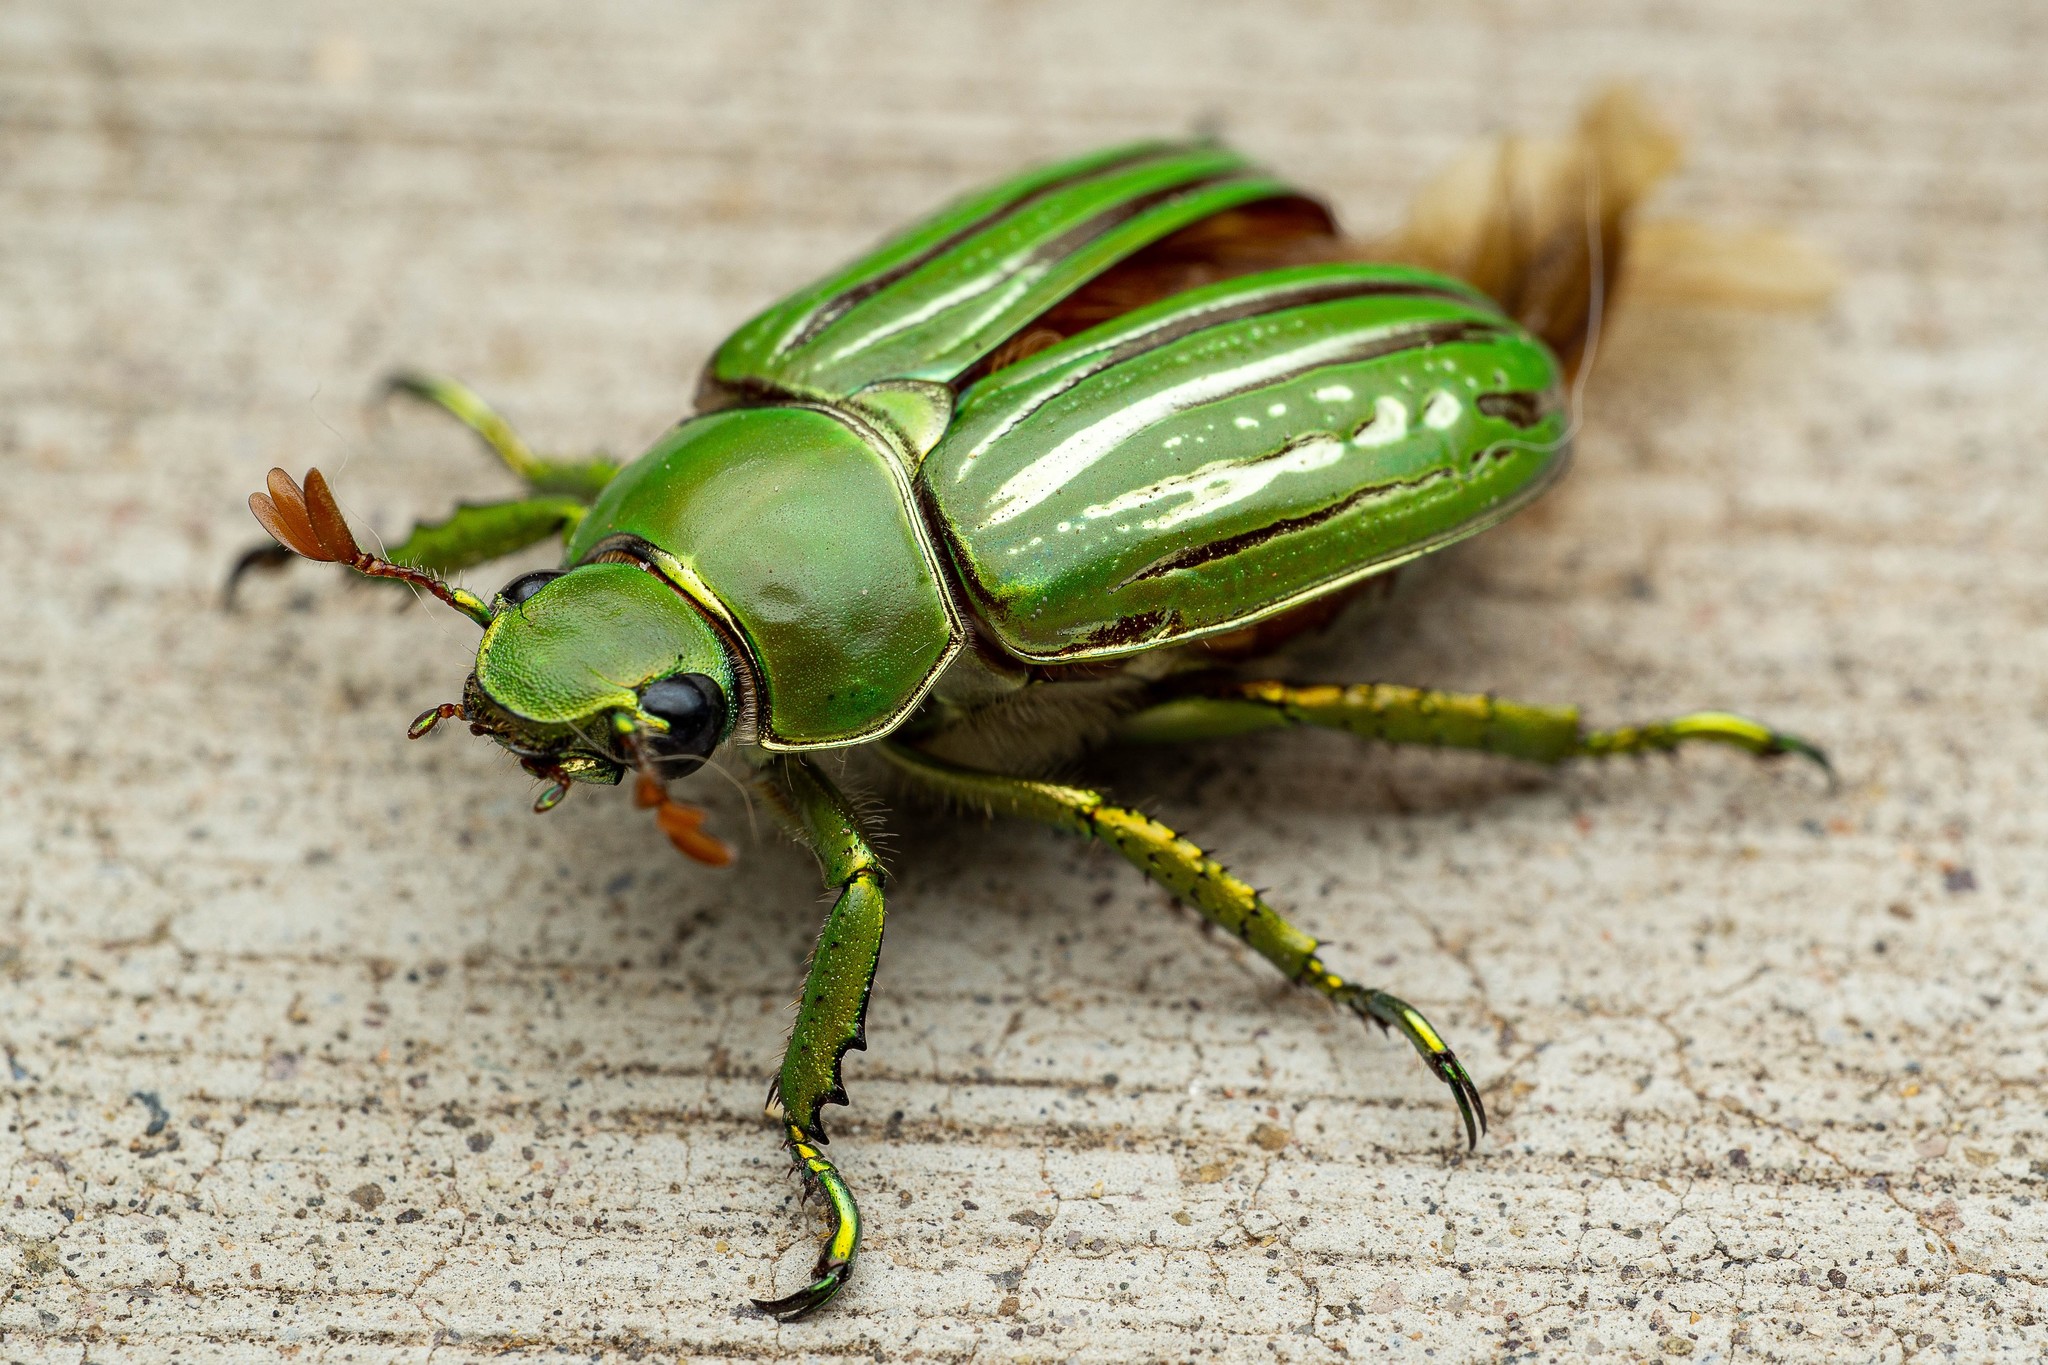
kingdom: Animalia
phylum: Arthropoda
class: Insecta
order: Coleoptera
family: Scarabaeidae
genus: Chrysina
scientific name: Chrysina gloriosa
